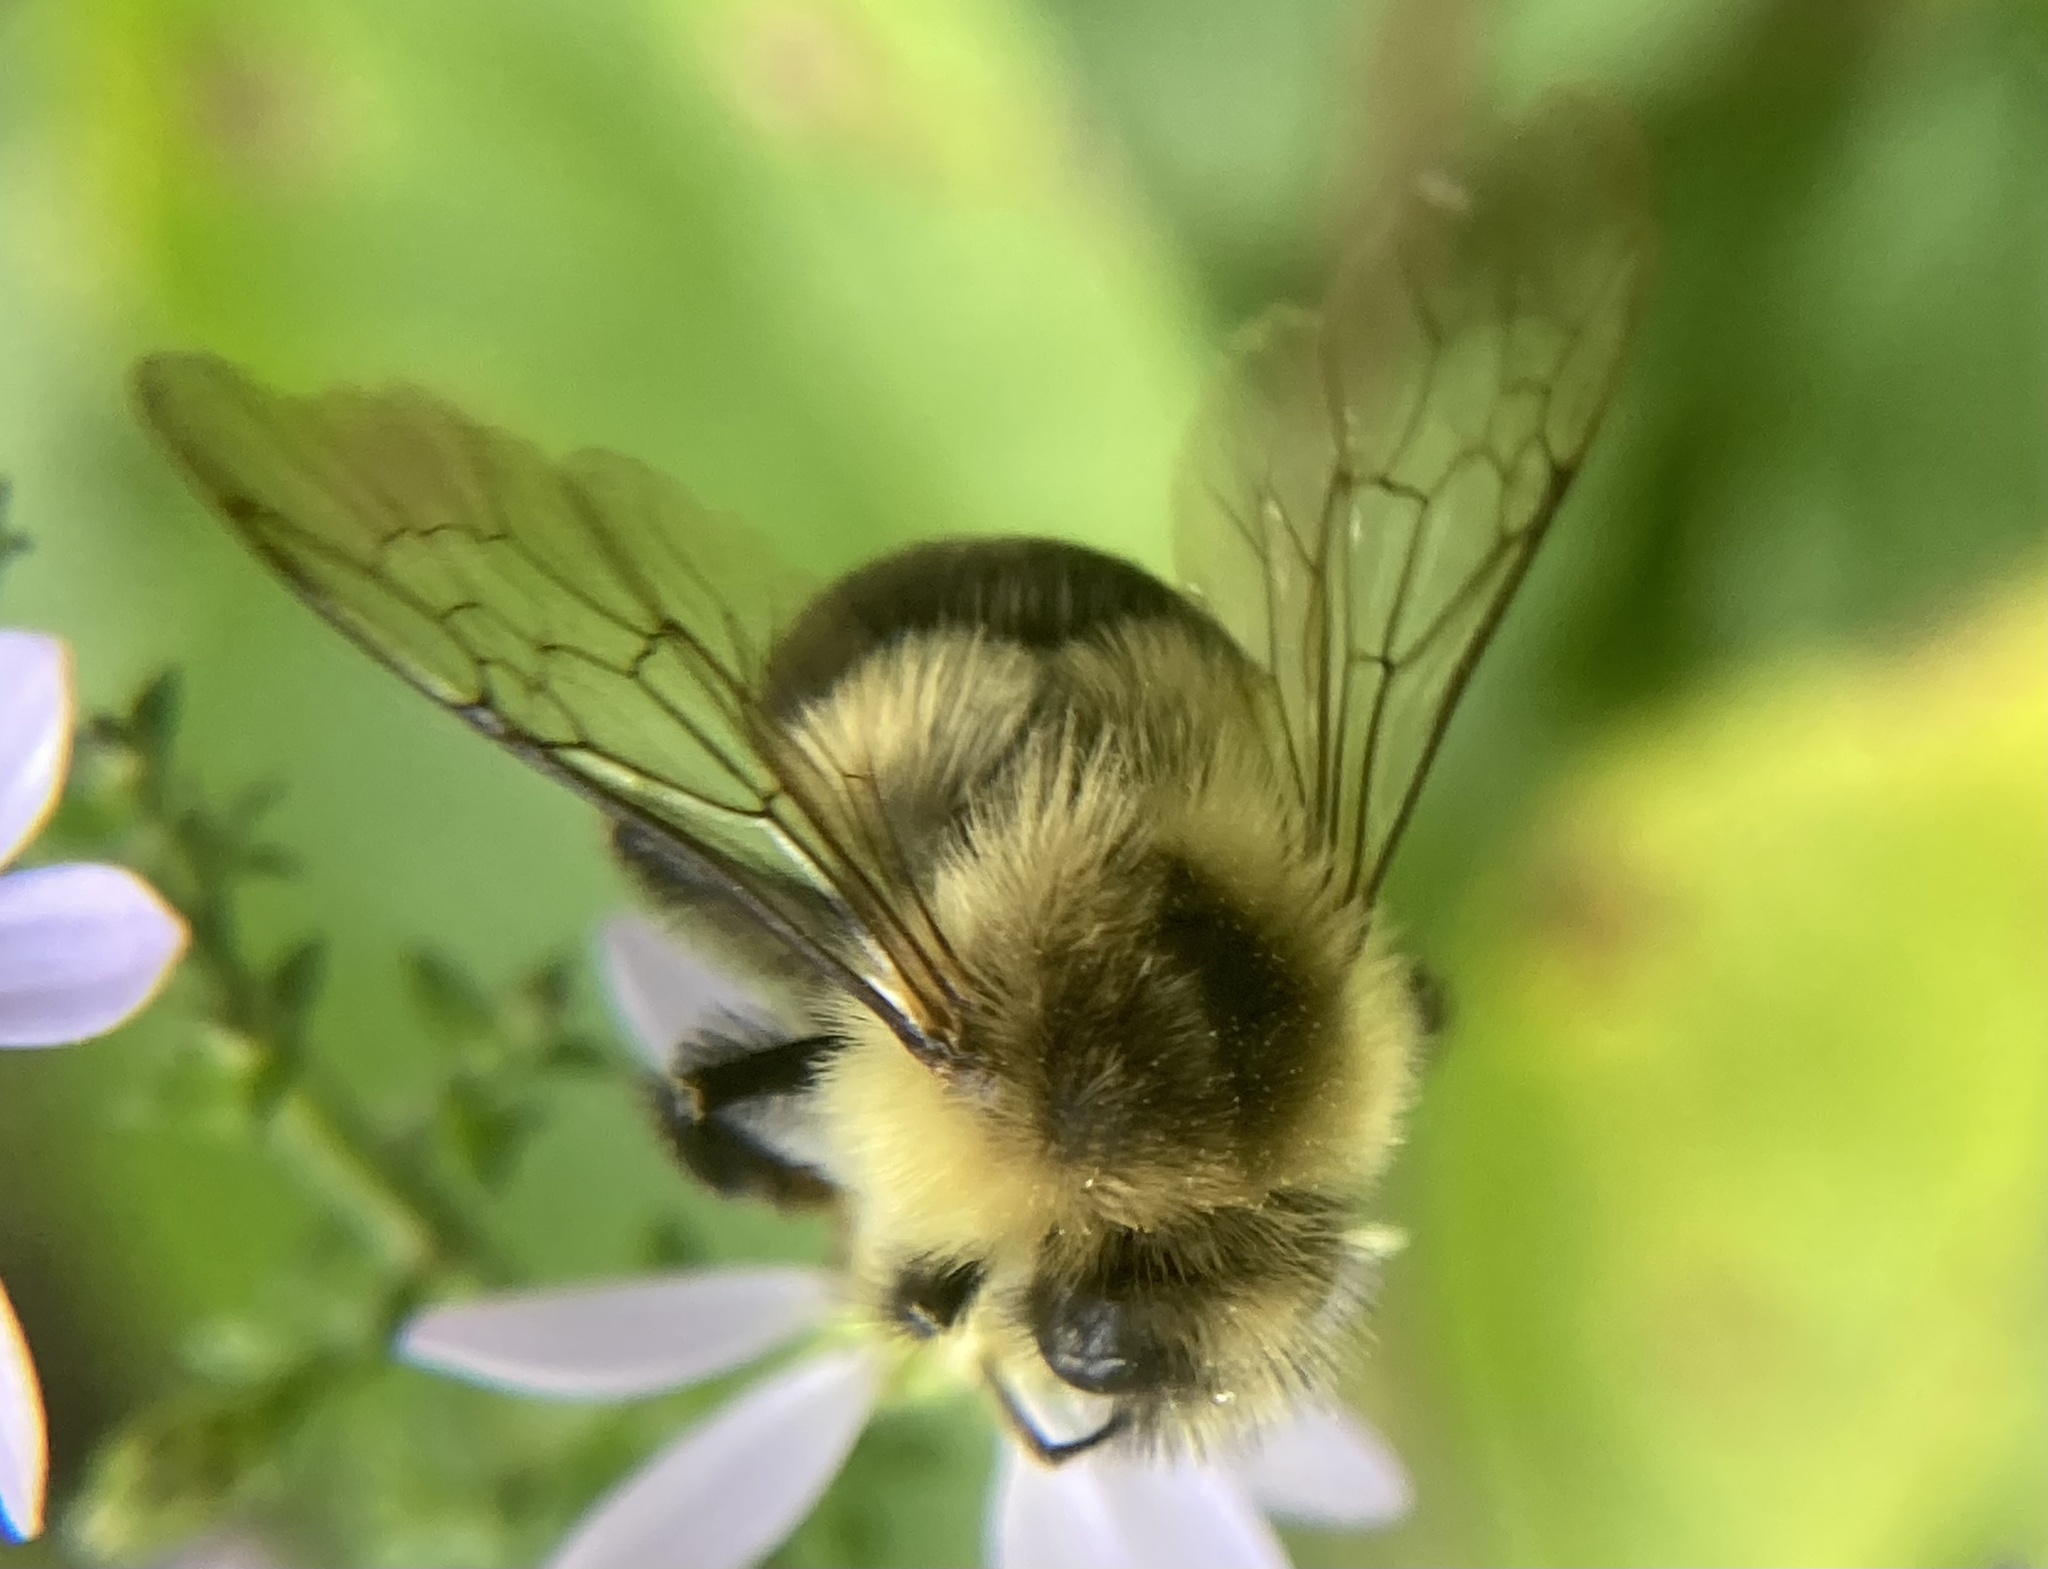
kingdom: Animalia
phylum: Arthropoda
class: Insecta
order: Hymenoptera
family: Apidae
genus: Bombus
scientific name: Bombus impatiens
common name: Common eastern bumble bee
